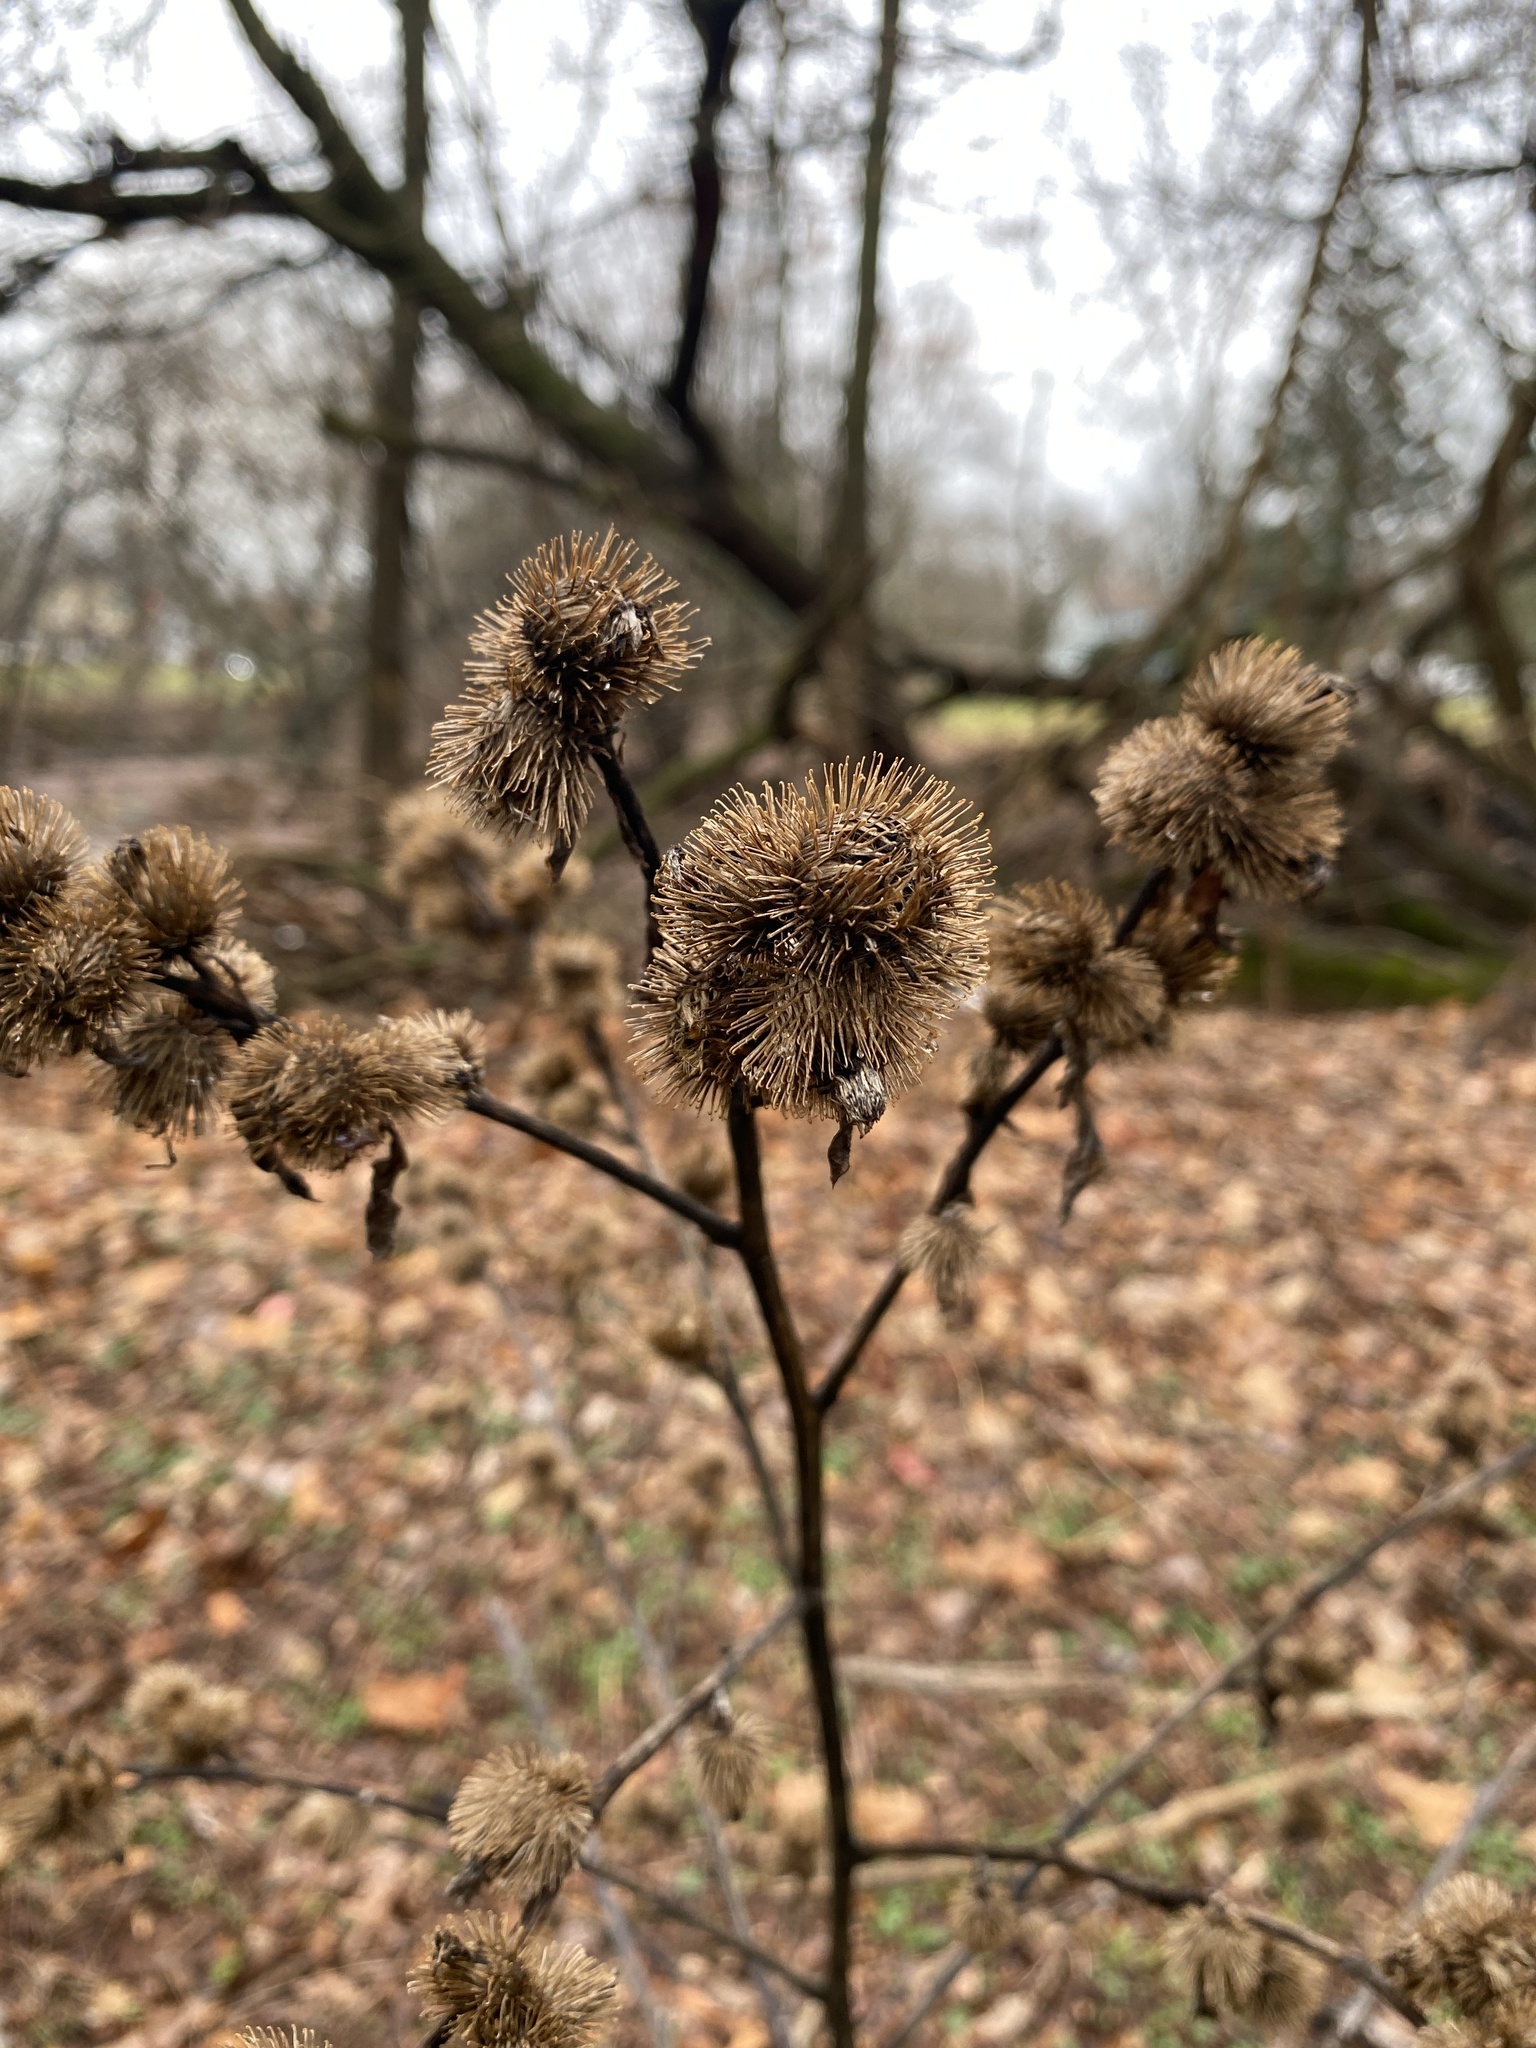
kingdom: Plantae
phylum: Tracheophyta
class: Magnoliopsida
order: Asterales
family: Asteraceae
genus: Arctium
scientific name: Arctium minus
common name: Lesser burdock
